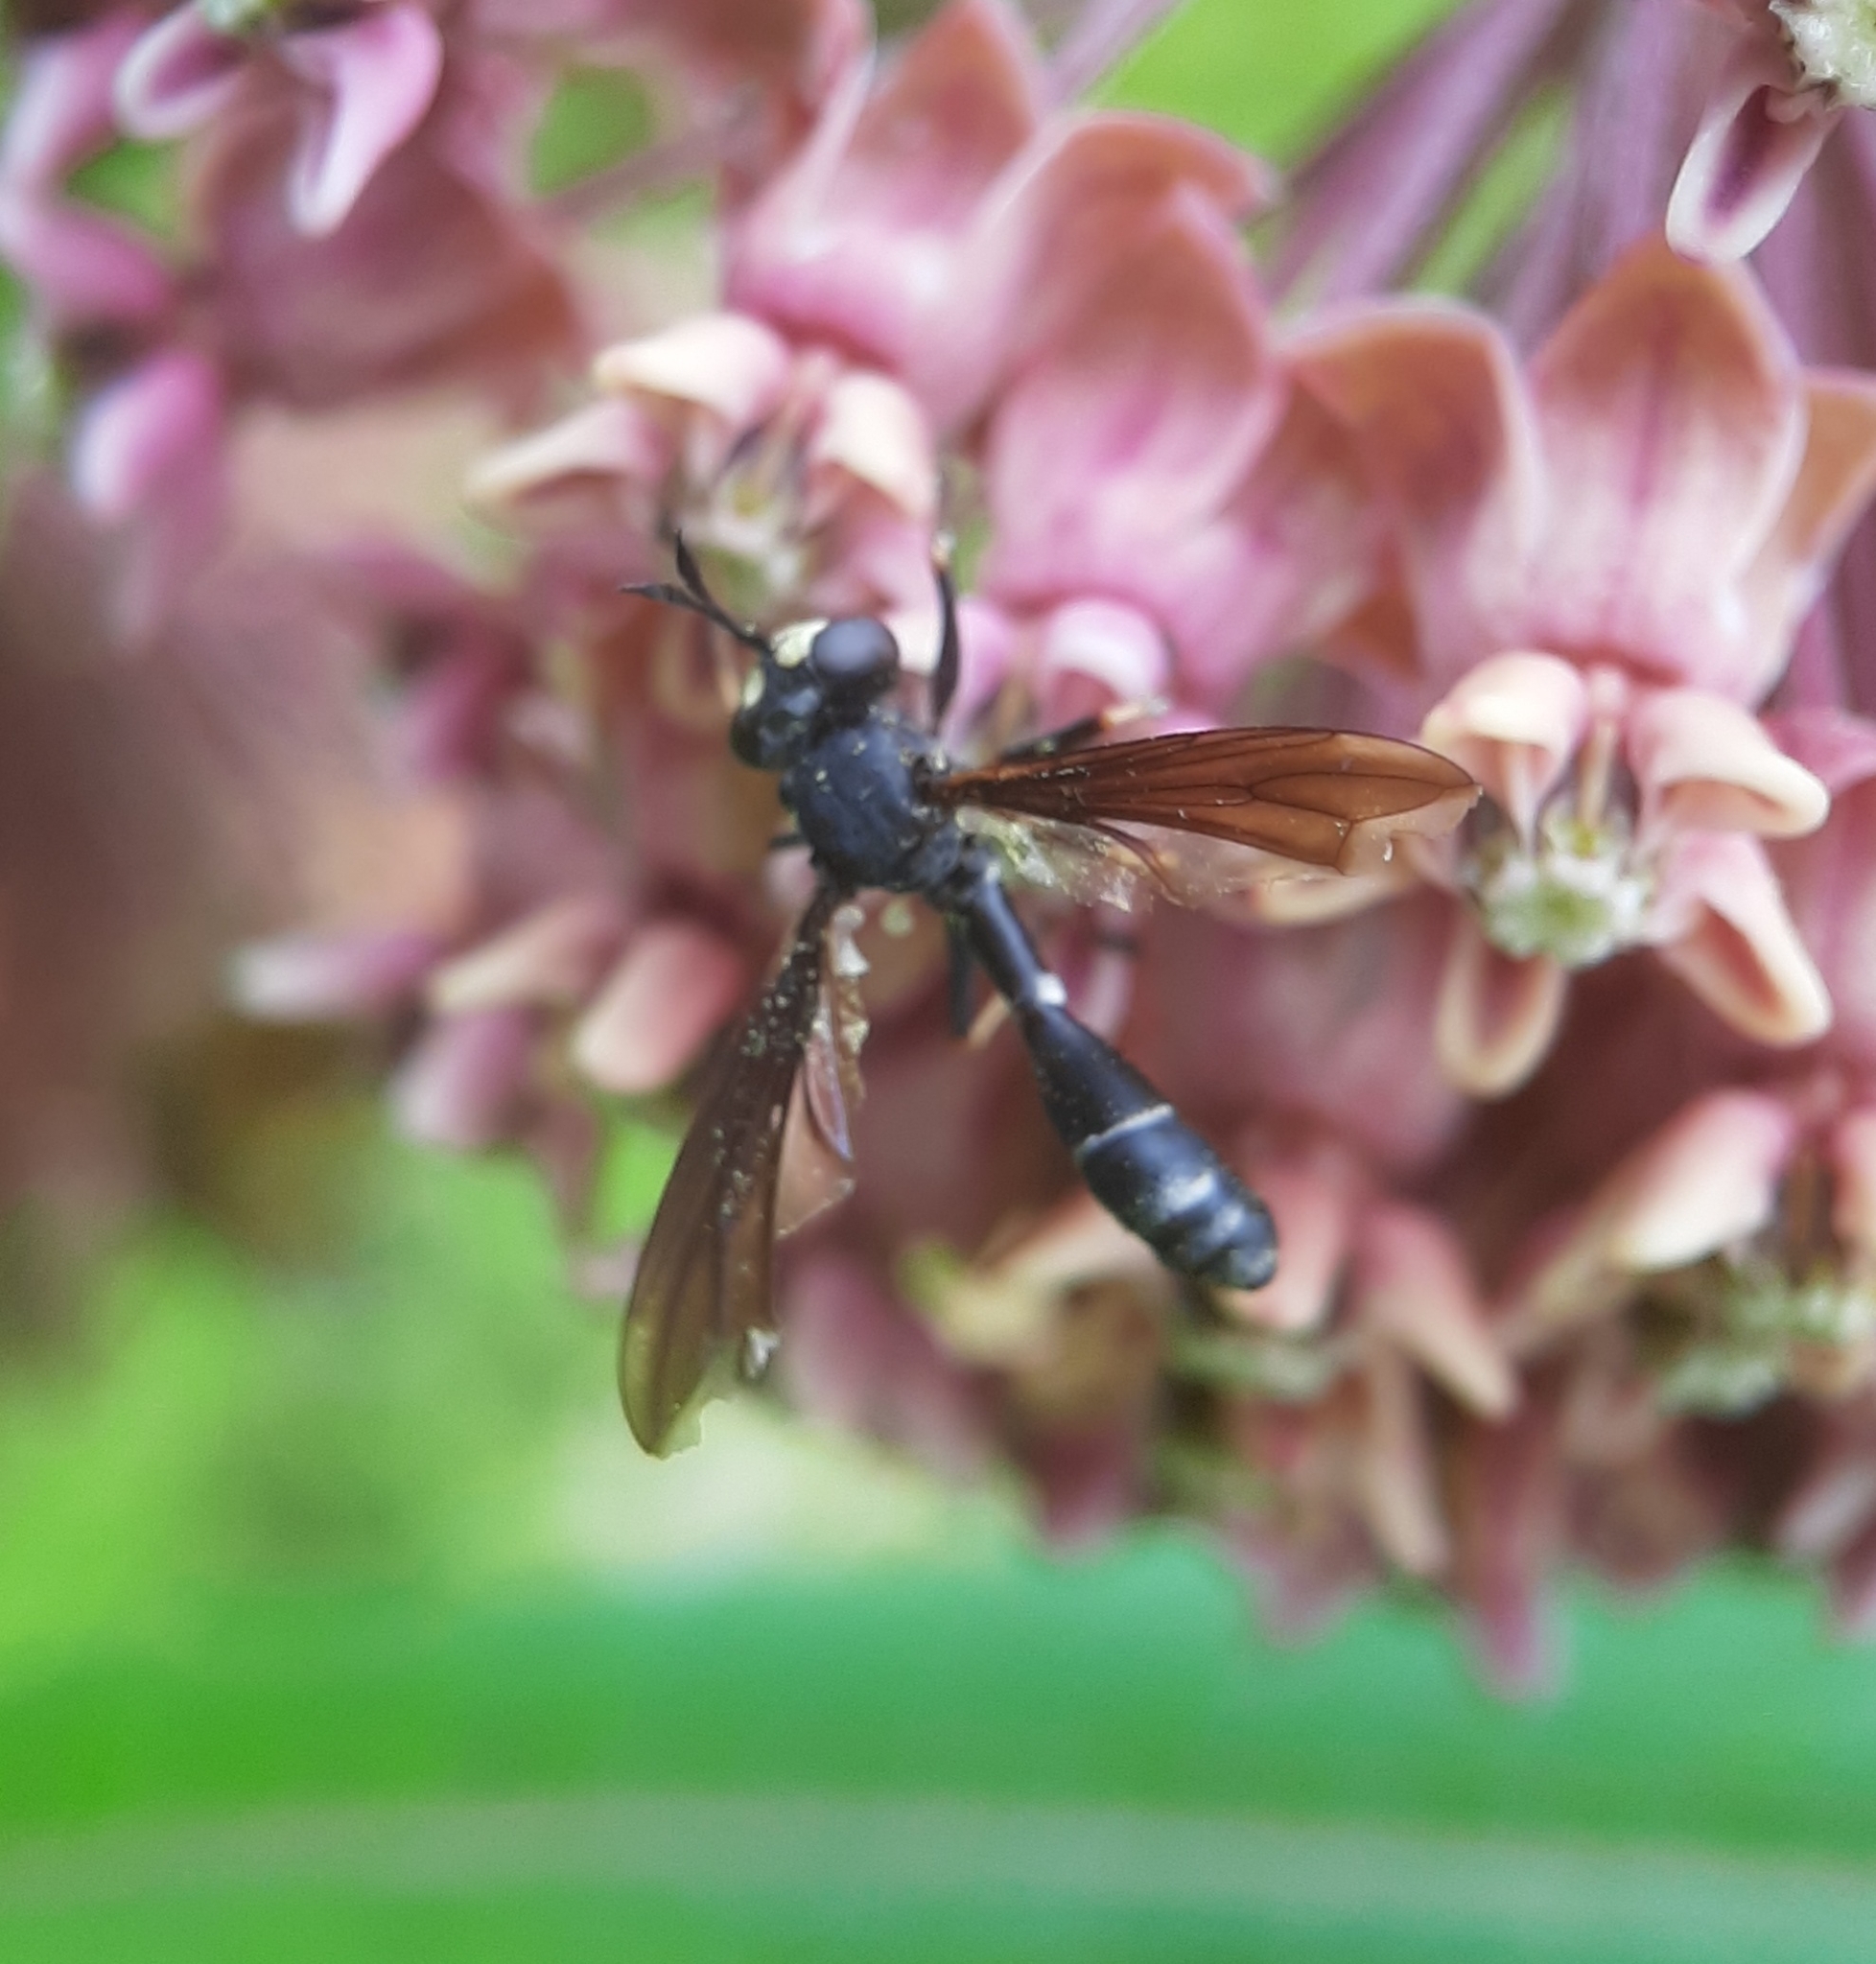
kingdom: Animalia
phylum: Arthropoda
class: Insecta
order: Diptera
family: Conopidae
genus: Physocephala
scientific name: Physocephala tibialis
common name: Common eastern physocephala
